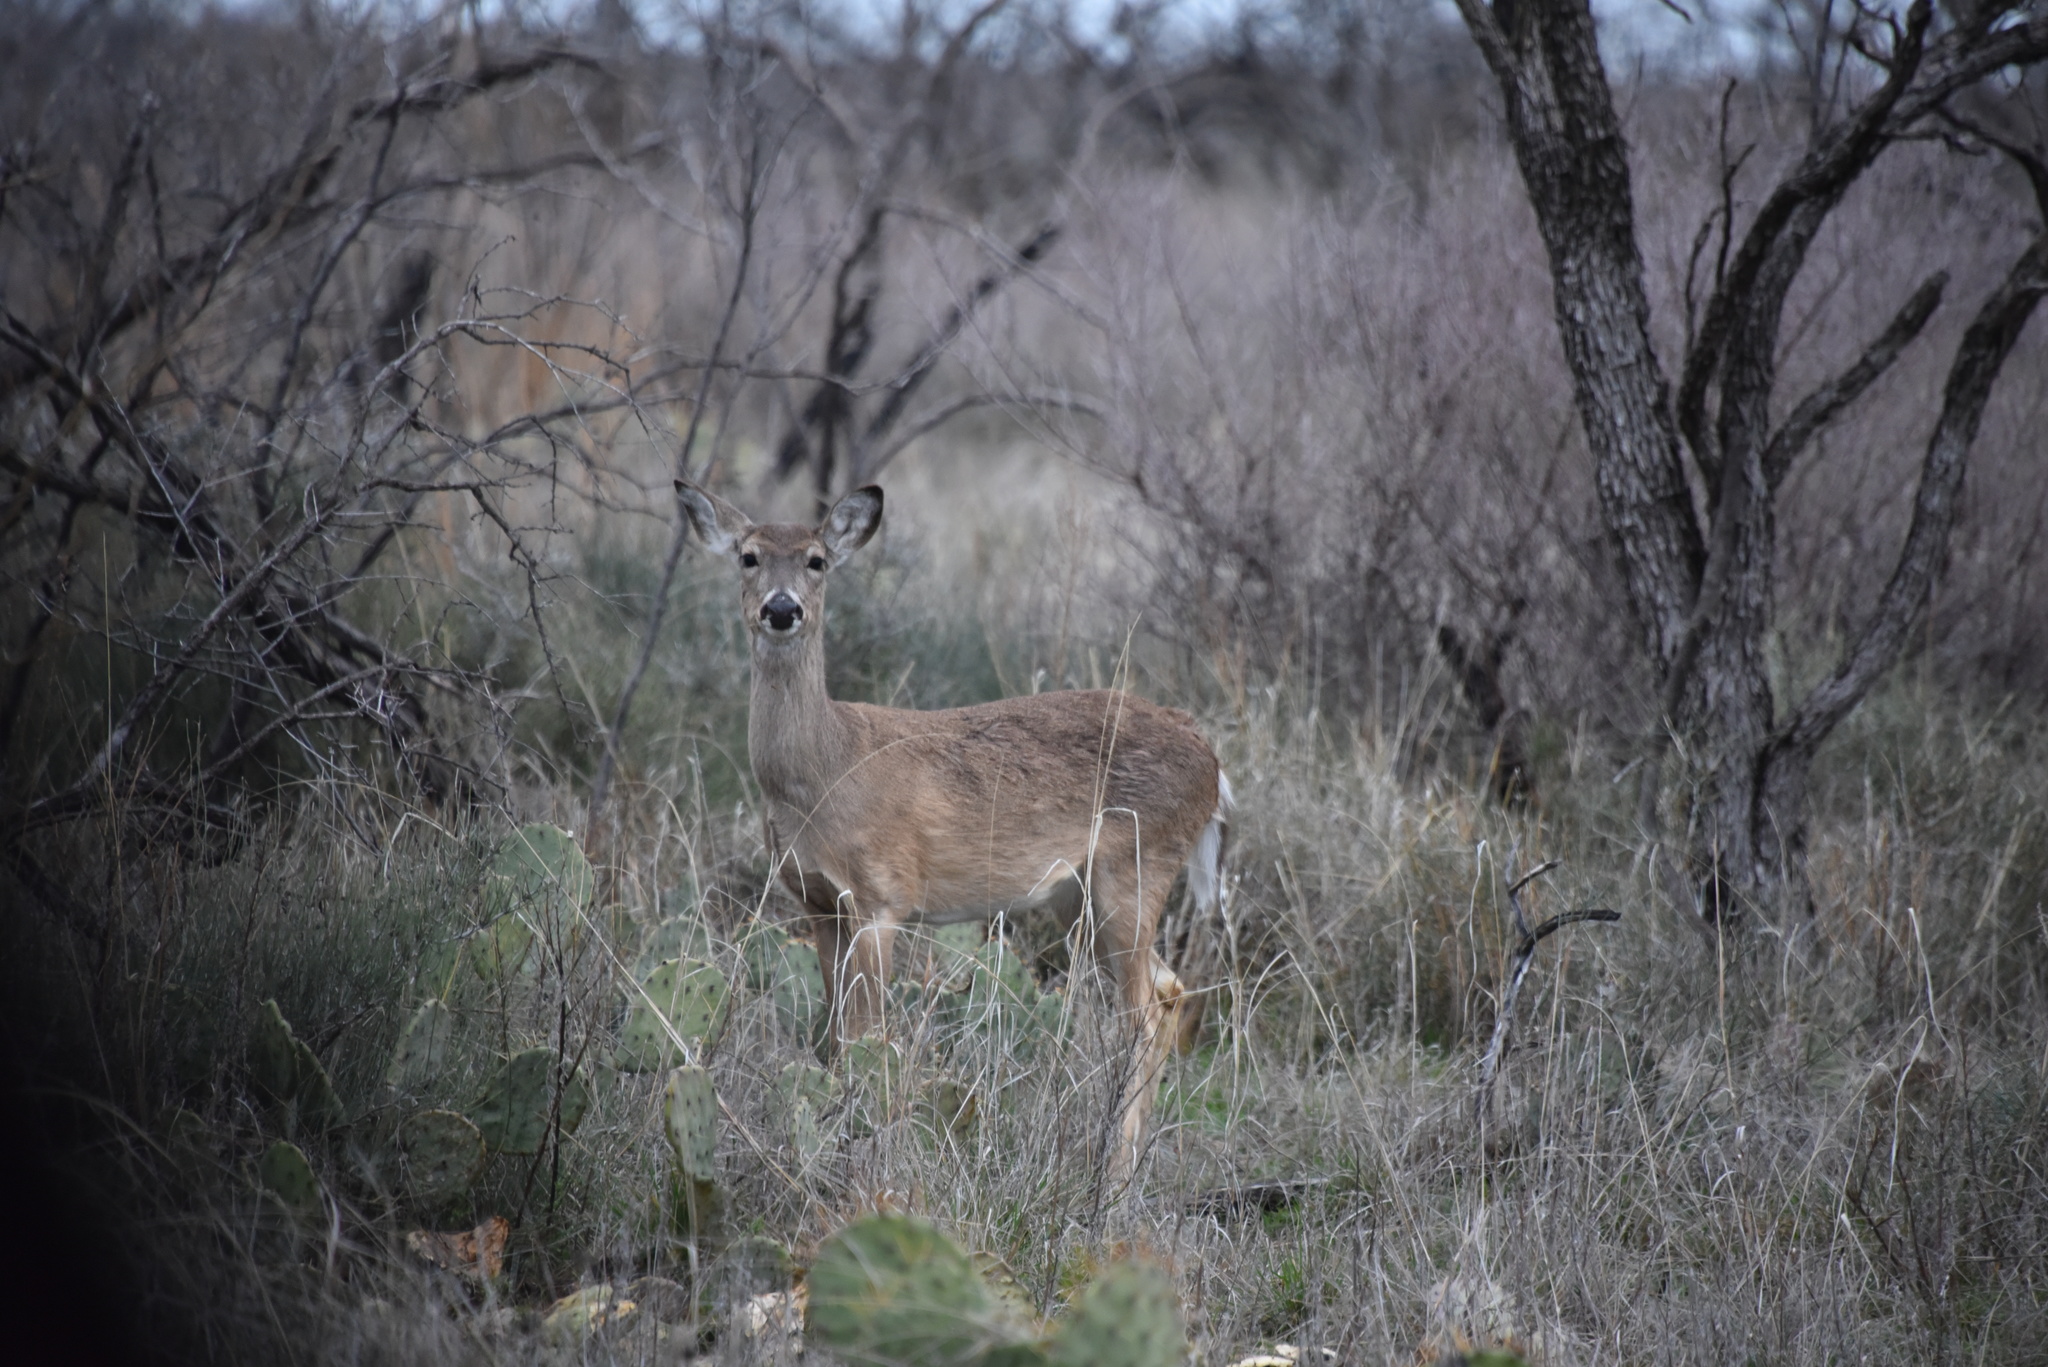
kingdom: Animalia
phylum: Chordata
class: Mammalia
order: Artiodactyla
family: Cervidae
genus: Odocoileus
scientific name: Odocoileus virginianus
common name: White-tailed deer
